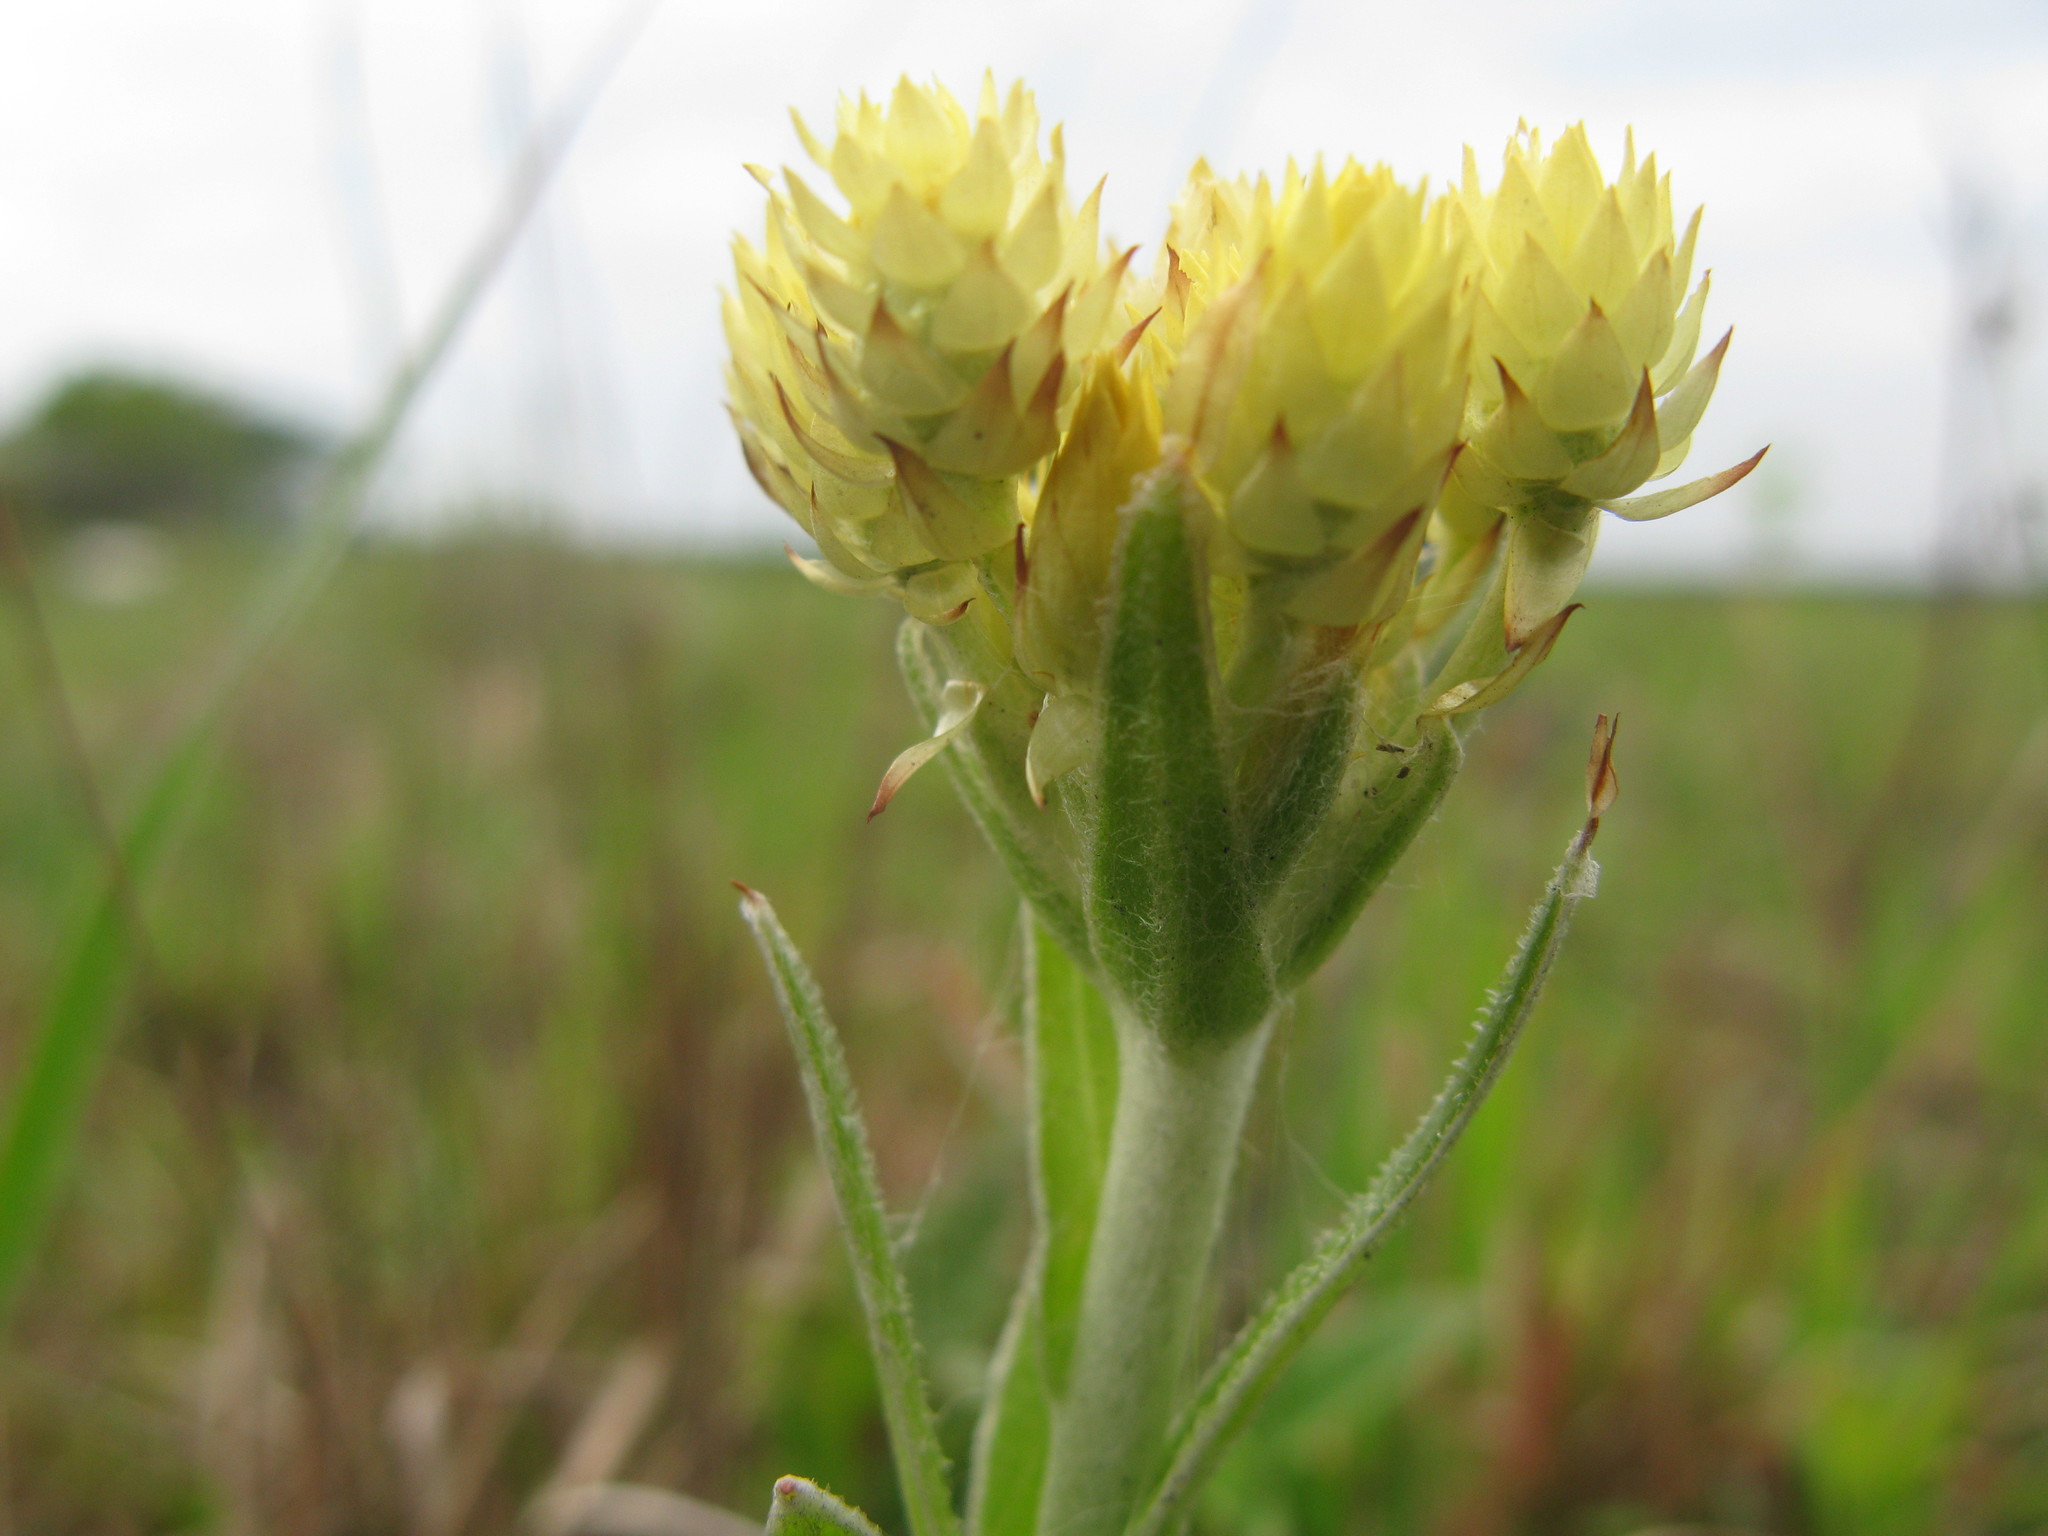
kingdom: Plantae
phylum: Tracheophyta
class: Magnoliopsida
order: Asterales
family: Asteraceae
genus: Helichrysum
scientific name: Helichrysum appendiculatum
